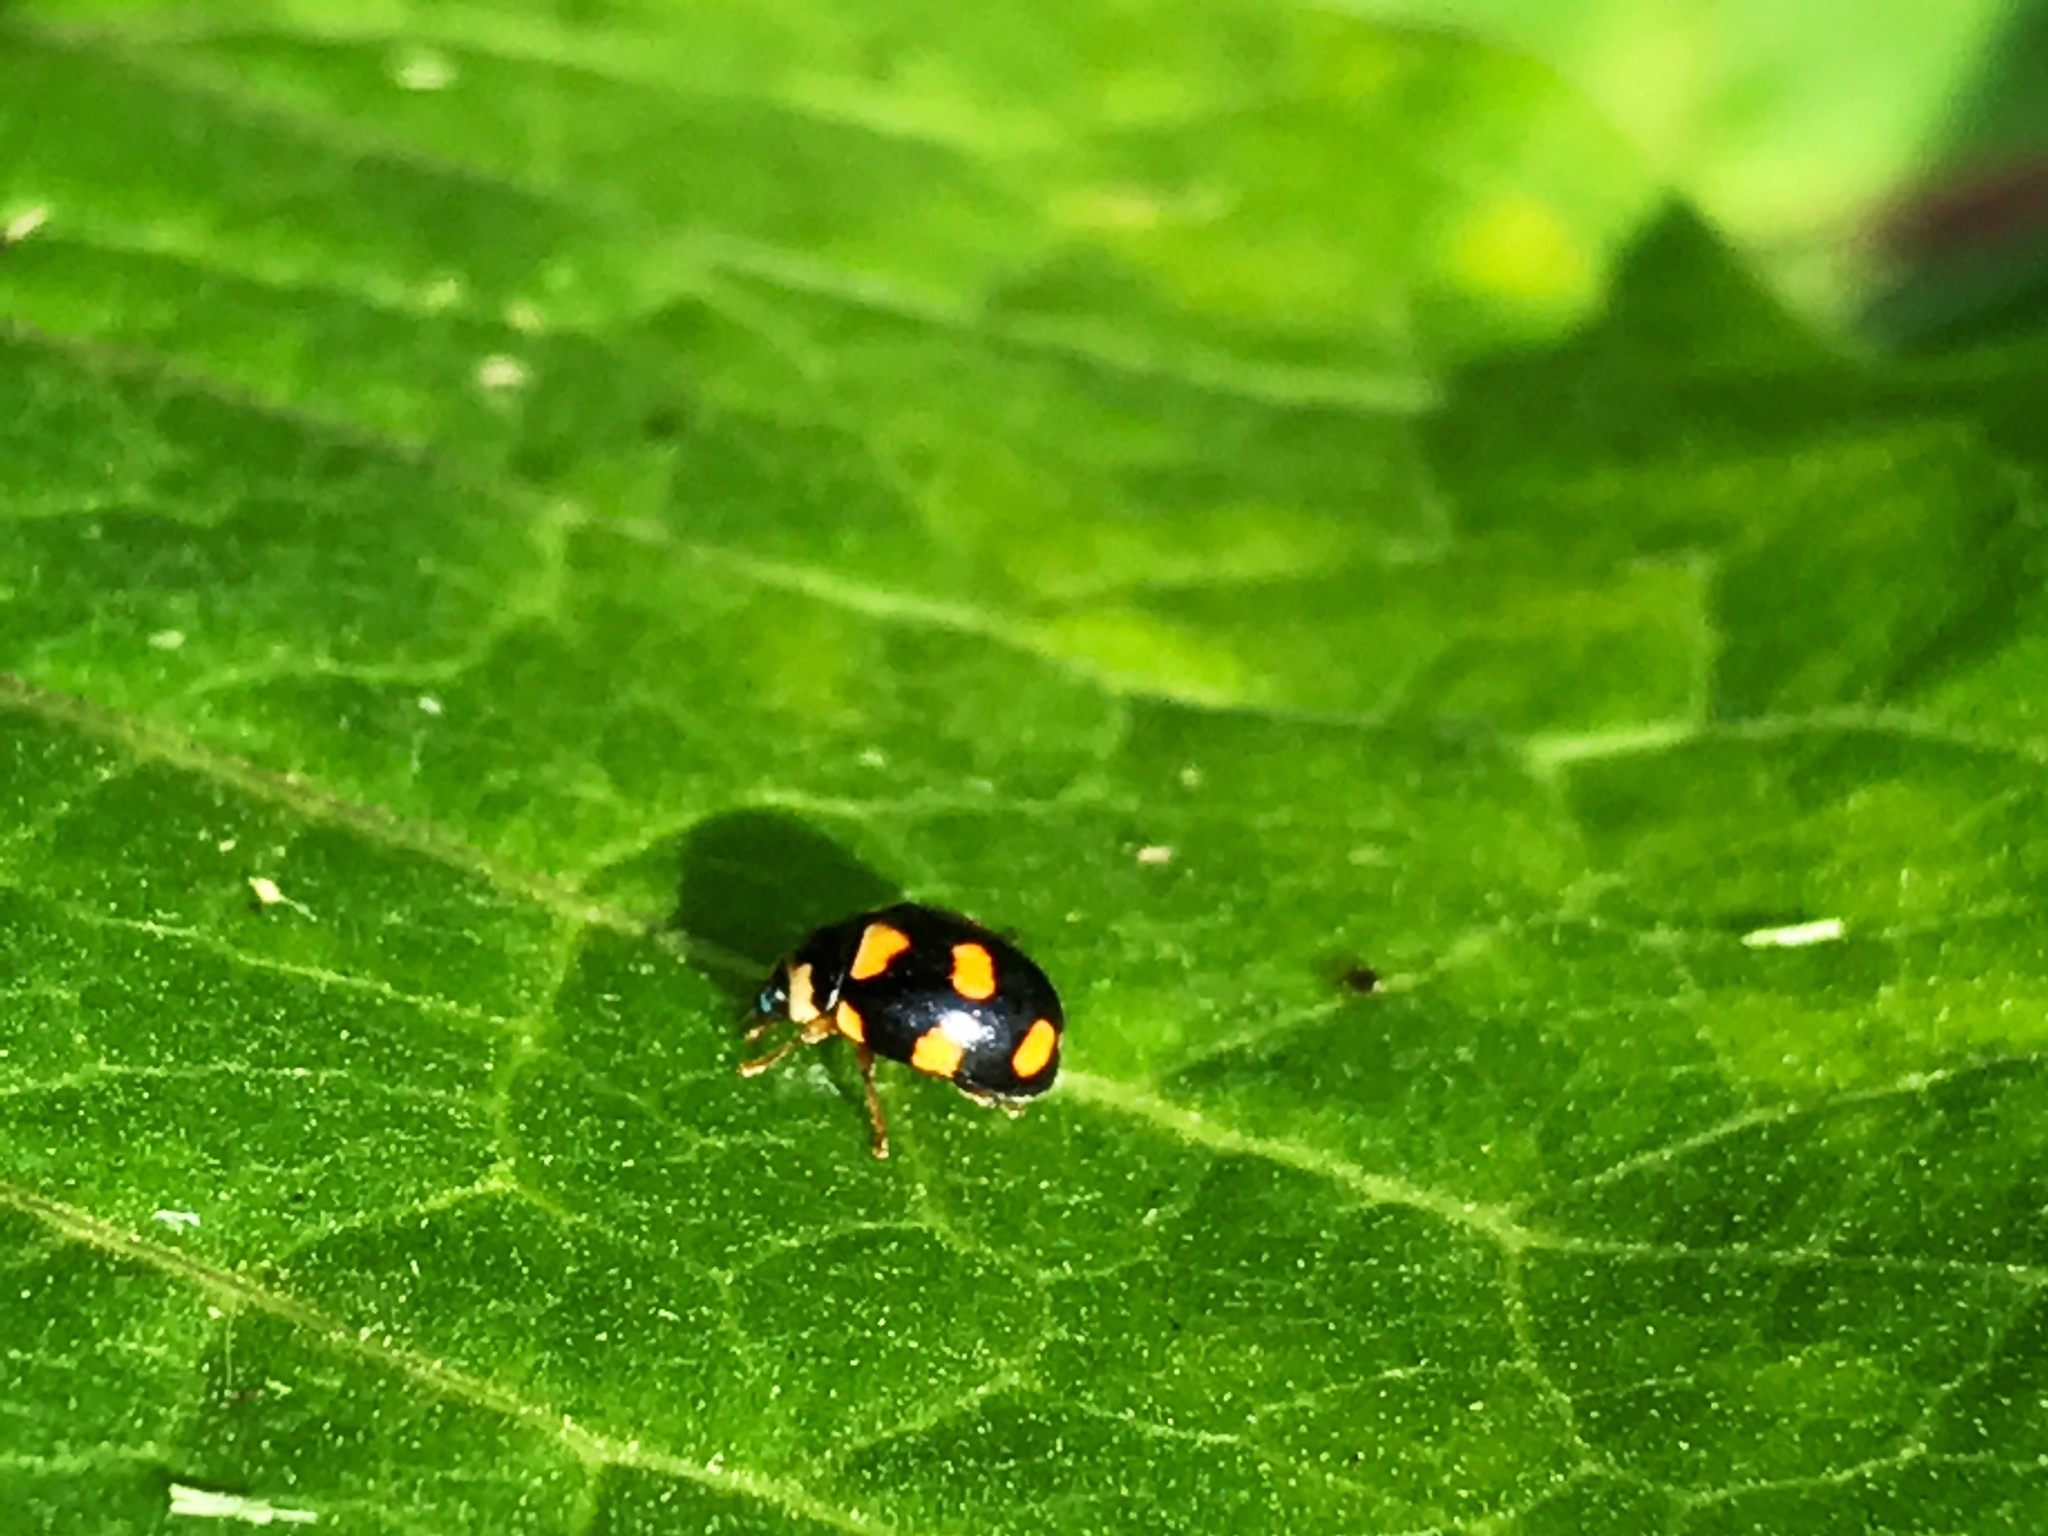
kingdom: Animalia
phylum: Arthropoda
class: Insecta
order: Coleoptera
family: Coccinellidae
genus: Brachiacantha
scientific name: Brachiacantha ursina
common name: Ursine spurleg lady beetle
